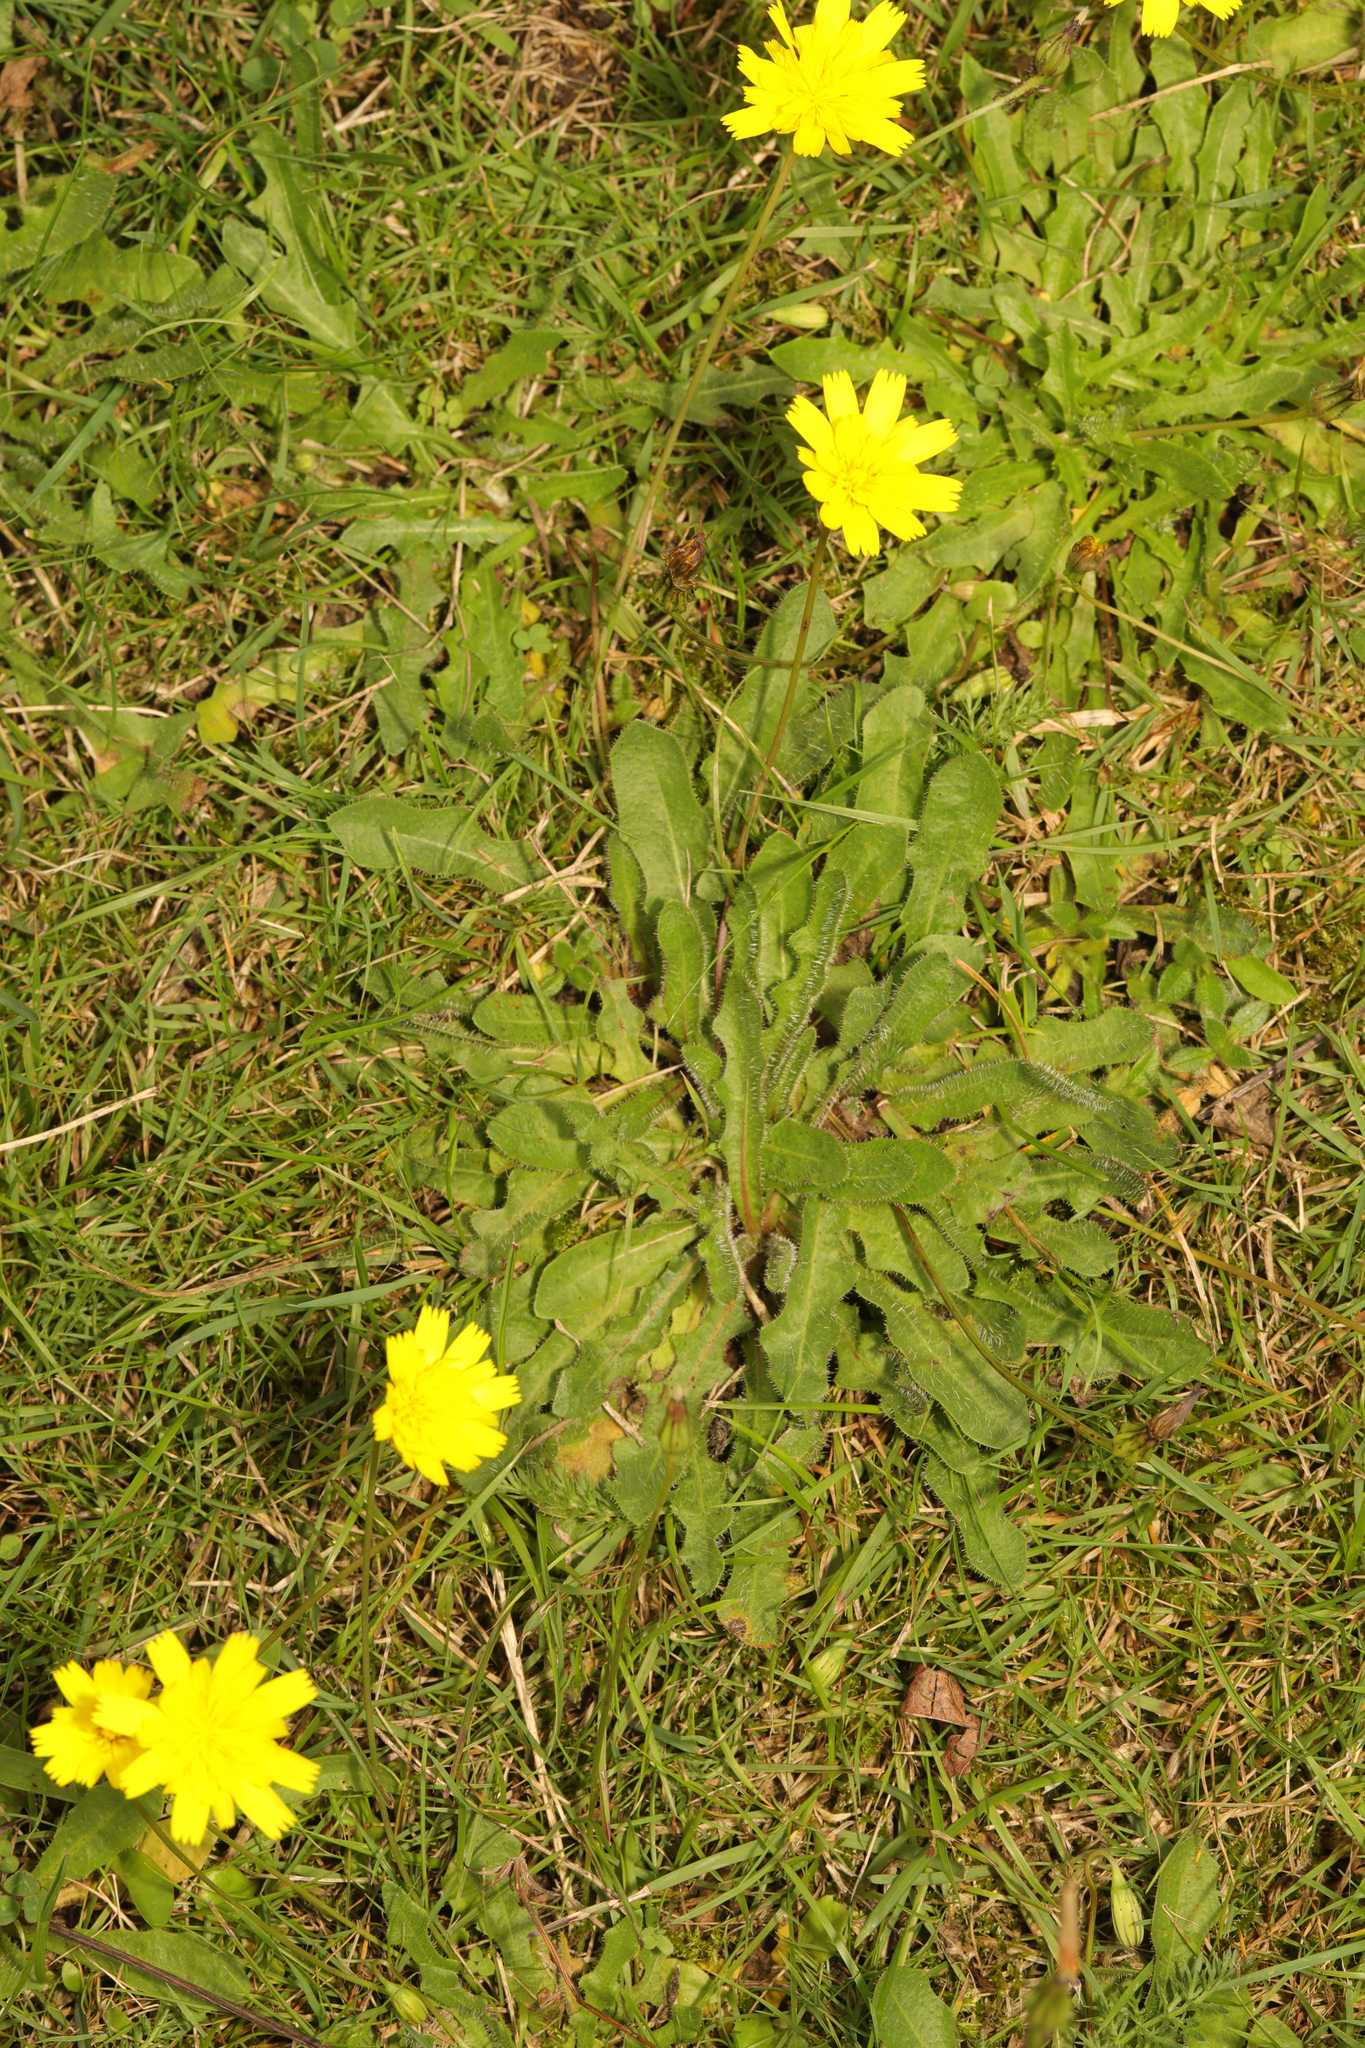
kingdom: Plantae
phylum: Tracheophyta
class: Magnoliopsida
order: Asterales
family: Asteraceae
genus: Hypochaeris
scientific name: Hypochaeris radicata
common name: Flatweed
